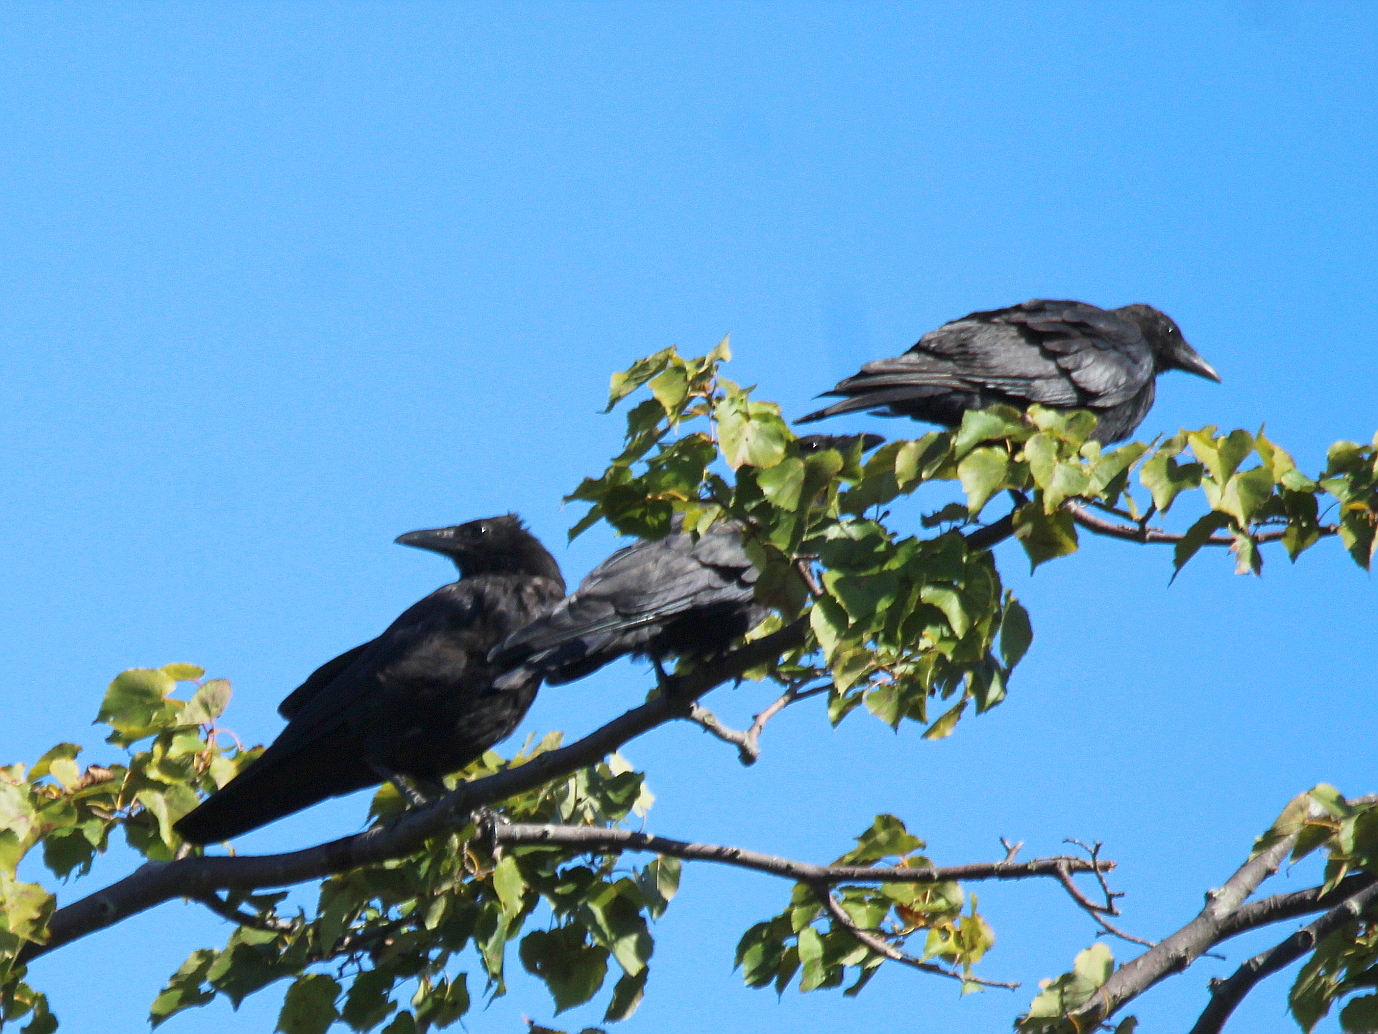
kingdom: Animalia
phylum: Chordata
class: Aves
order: Passeriformes
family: Corvidae
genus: Corvus
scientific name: Corvus corone
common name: Carrion crow
